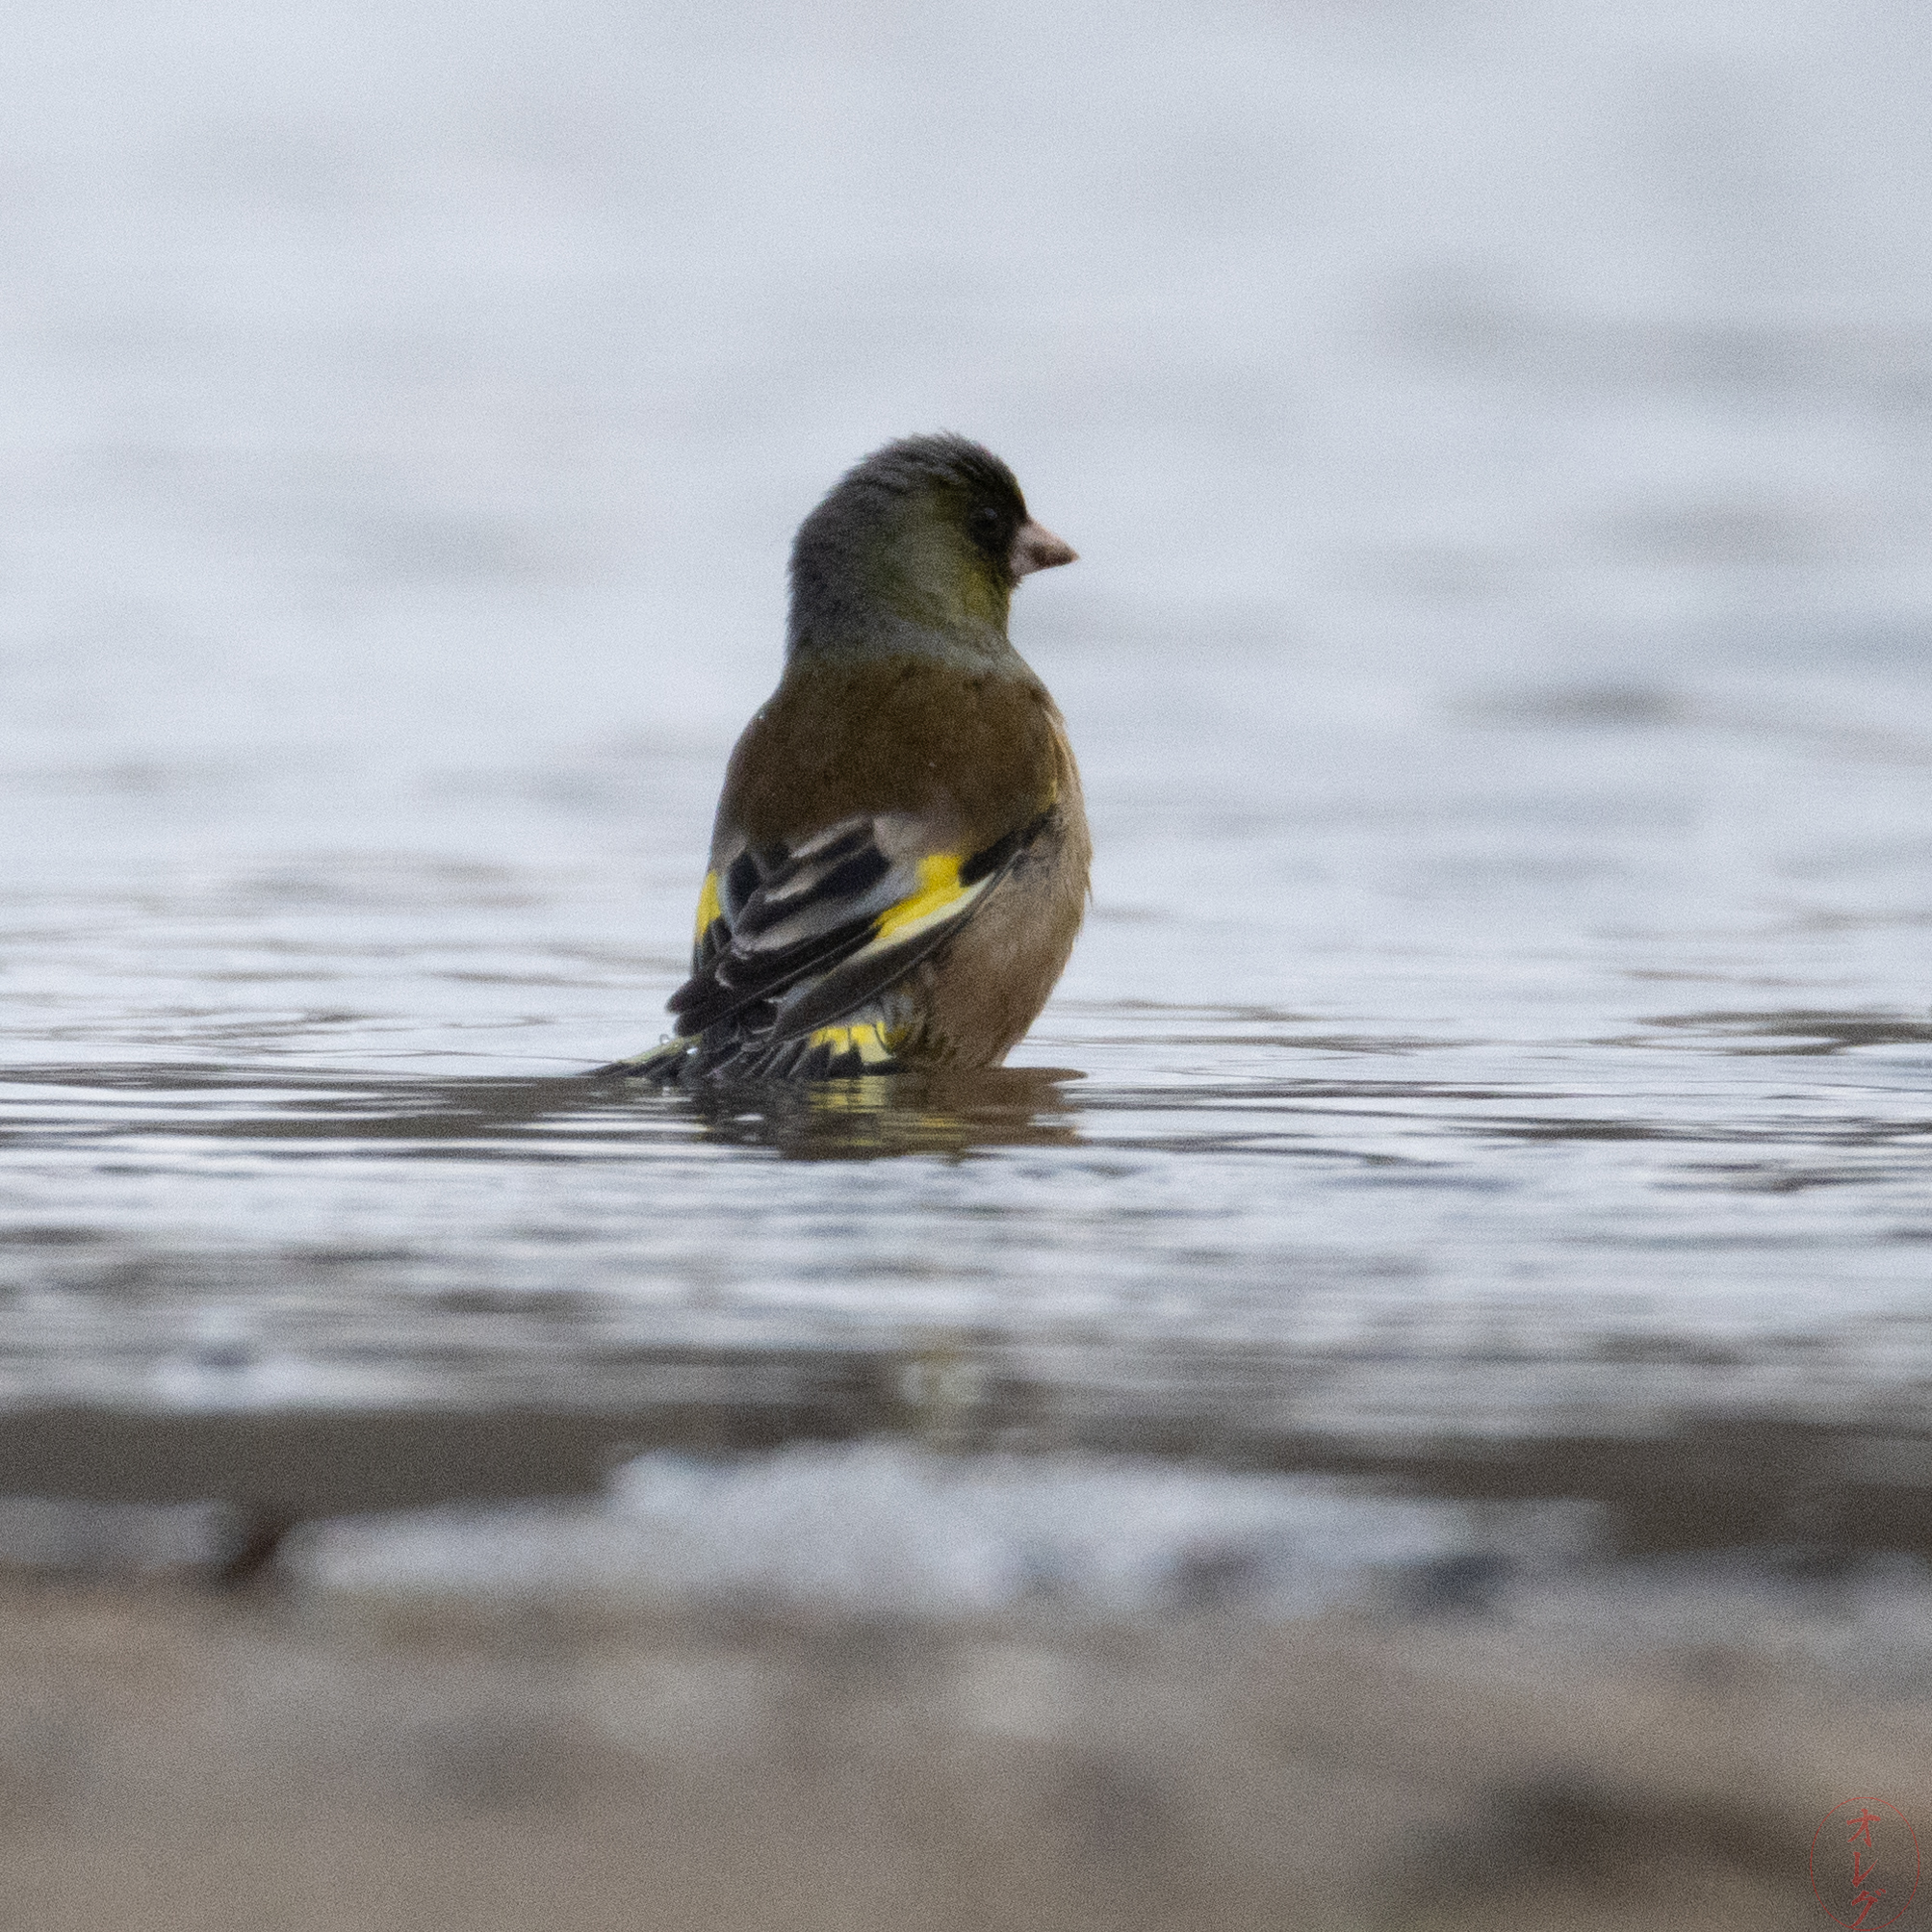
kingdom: Plantae
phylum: Tracheophyta
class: Liliopsida
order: Poales
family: Poaceae
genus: Chloris
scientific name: Chloris sinica
